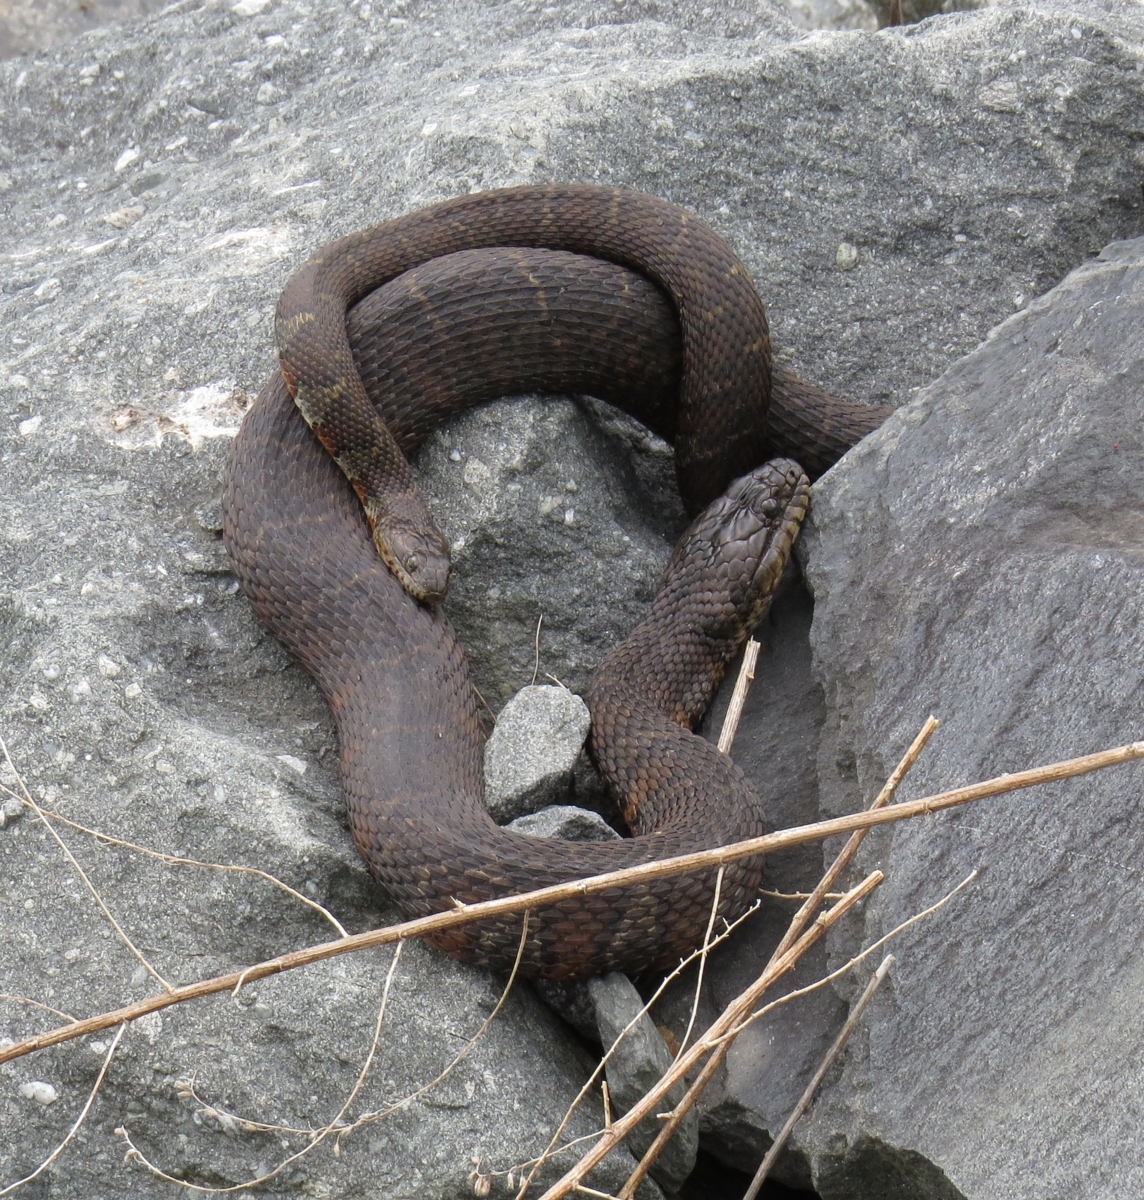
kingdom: Animalia
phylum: Chordata
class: Squamata
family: Colubridae
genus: Nerodia
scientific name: Nerodia sipedon
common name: Northern water snake
